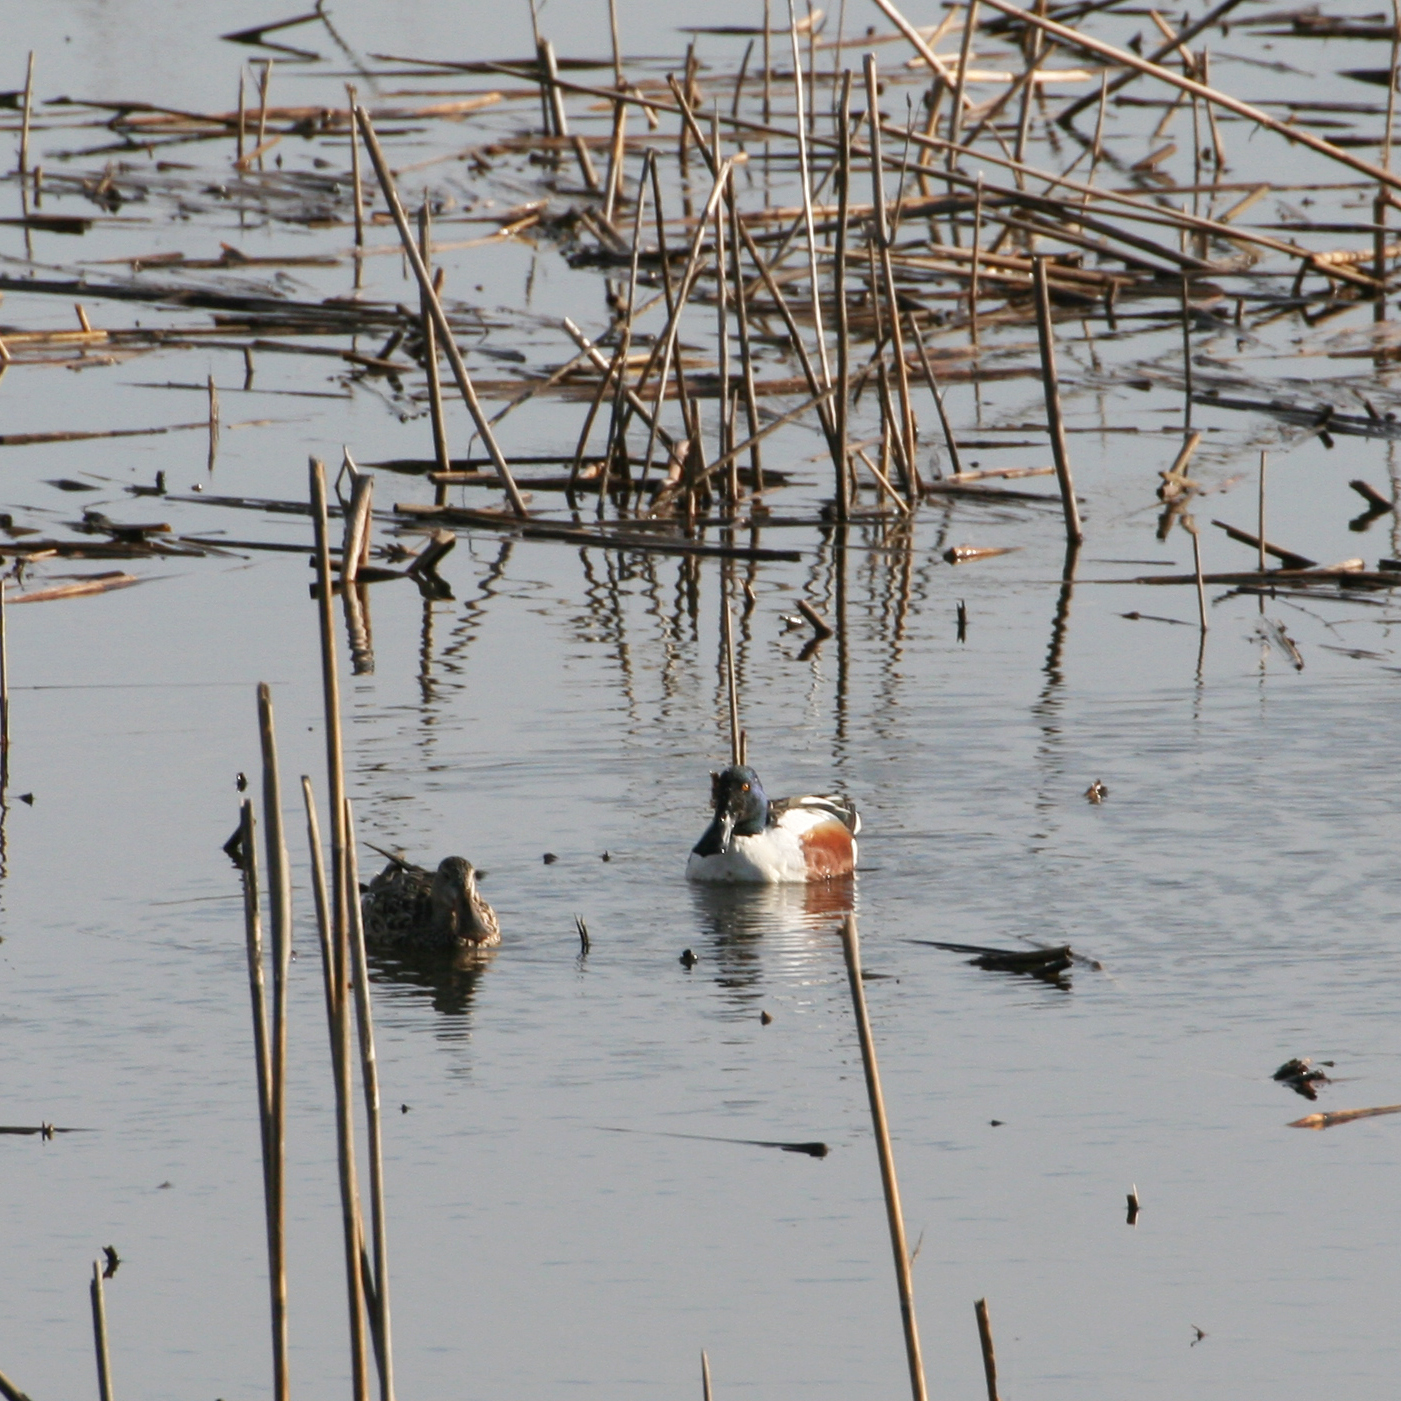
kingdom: Animalia
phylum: Chordata
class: Aves
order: Anseriformes
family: Anatidae
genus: Spatula
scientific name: Spatula clypeata
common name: Northern shoveler
